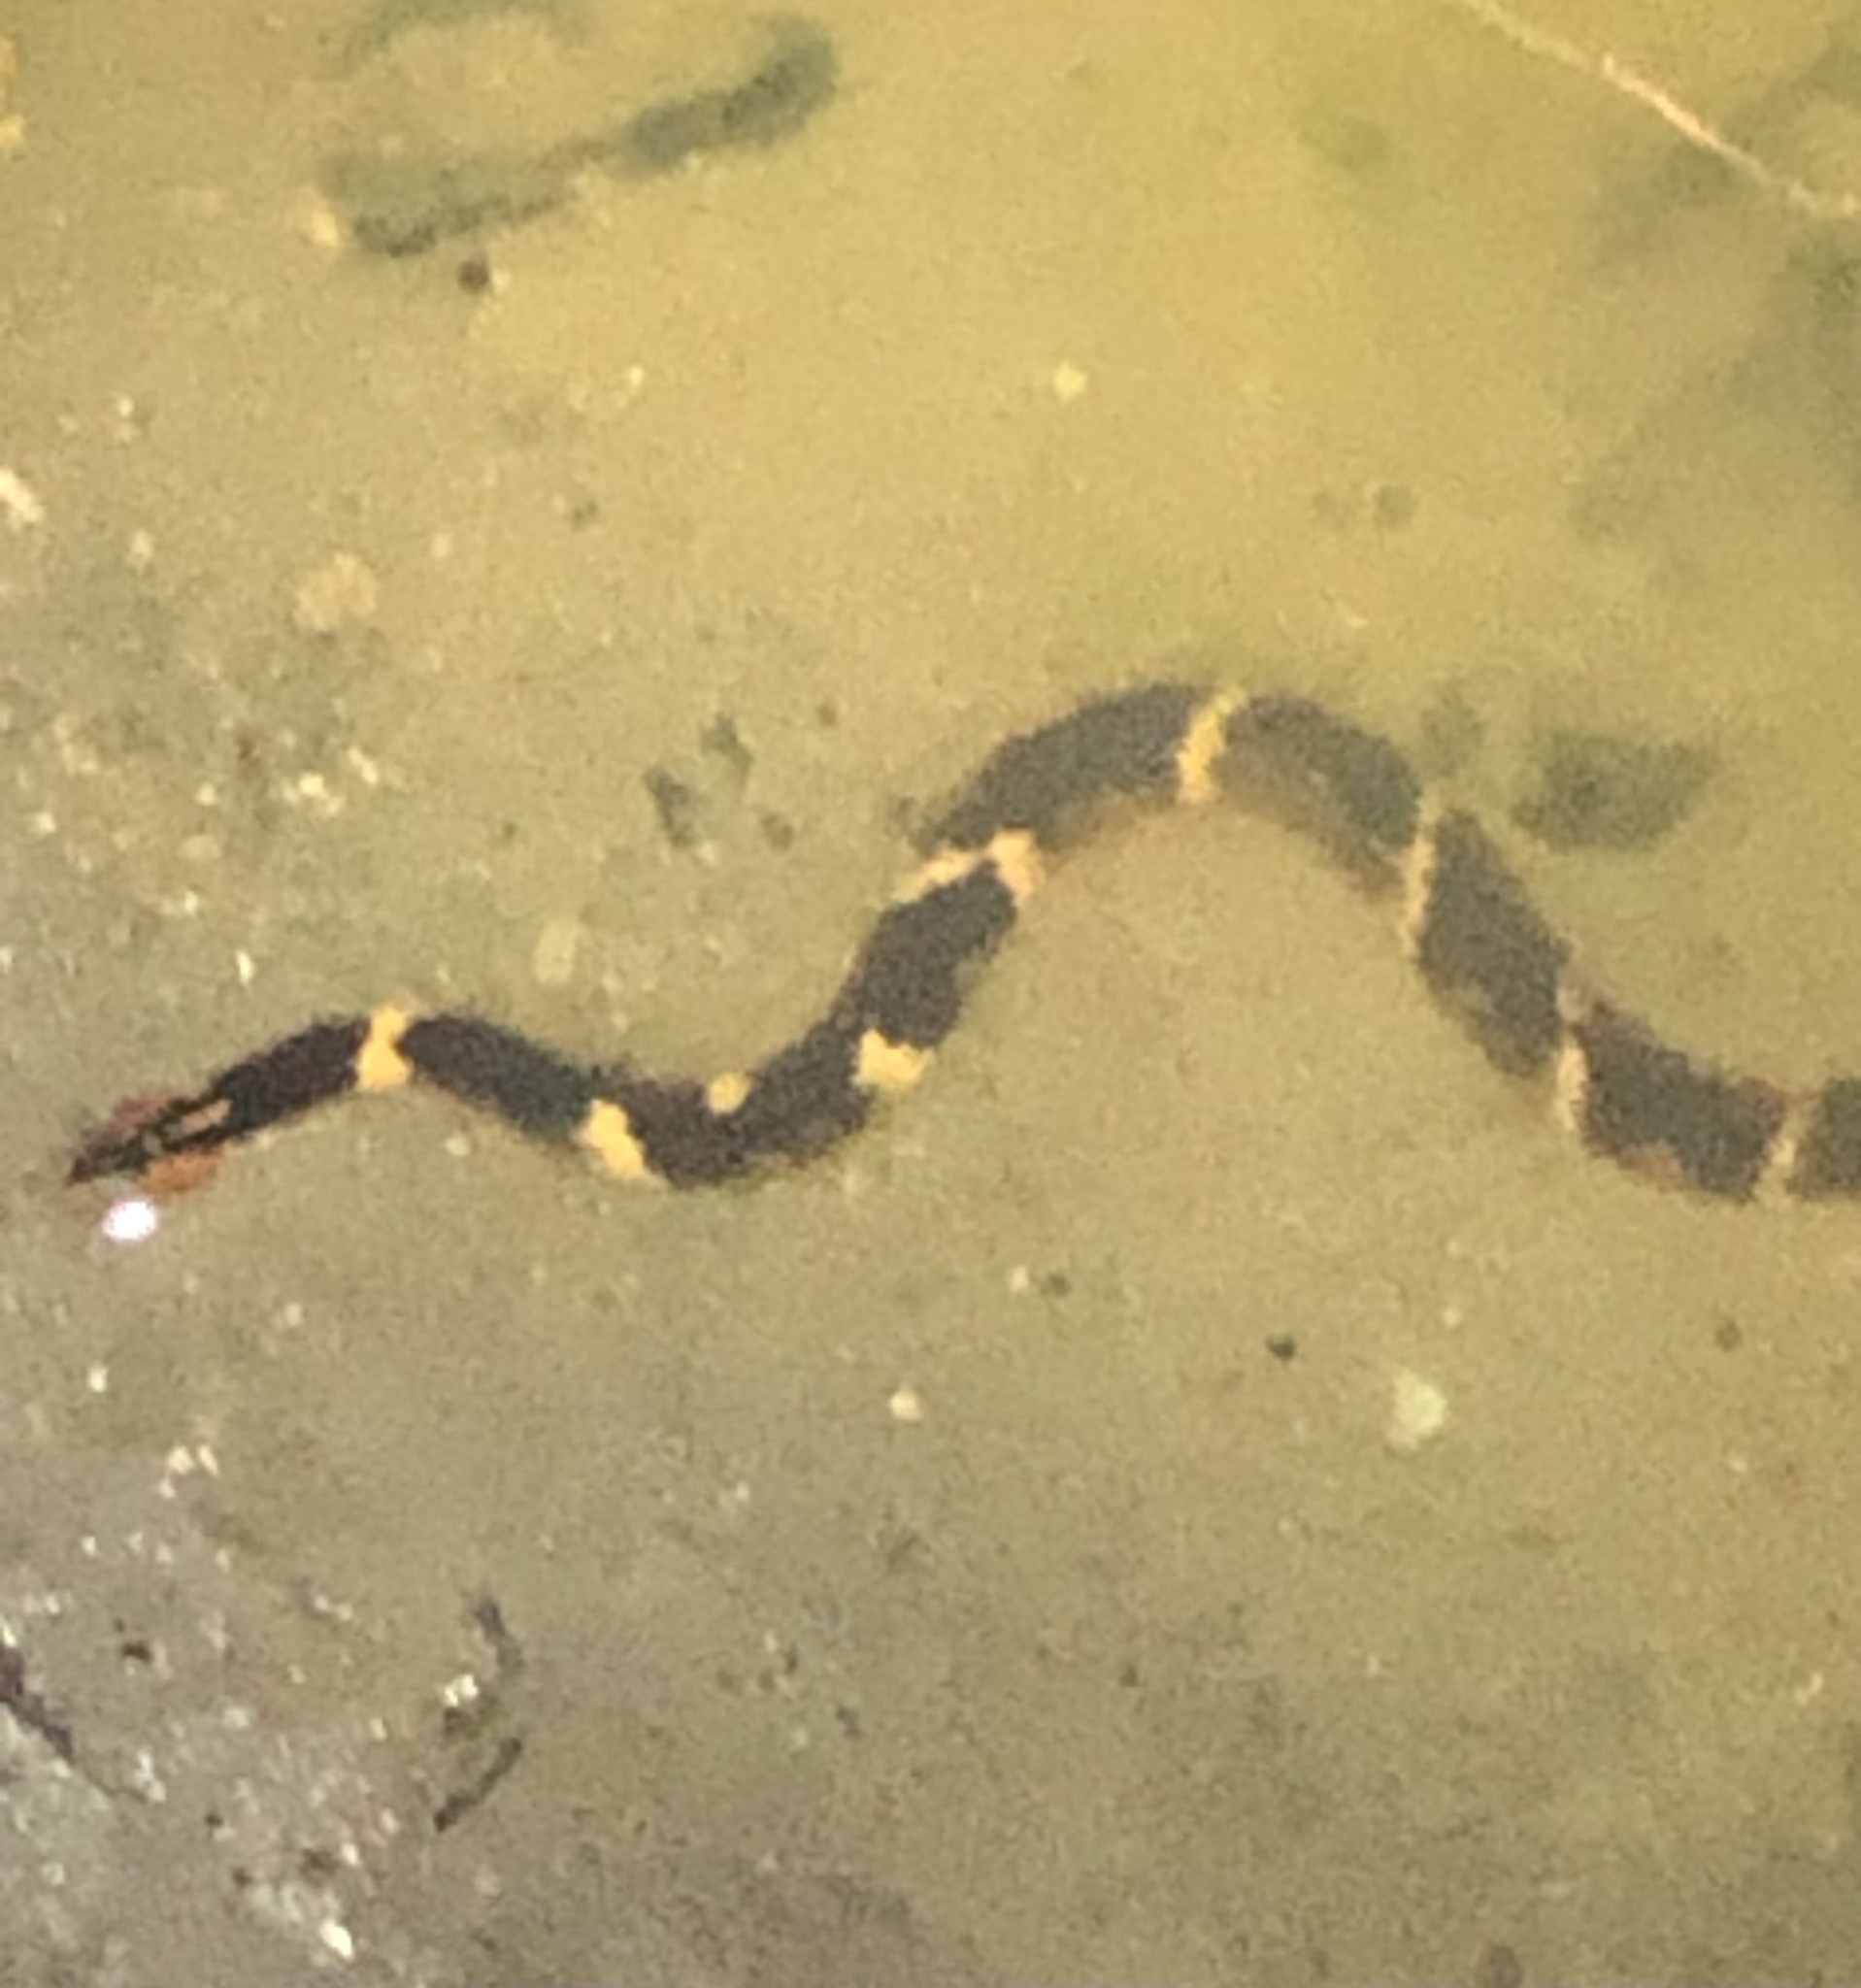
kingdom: Animalia
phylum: Chordata
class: Squamata
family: Colubridae
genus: Nerodia
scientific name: Nerodia fasciata
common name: Southern water snake
